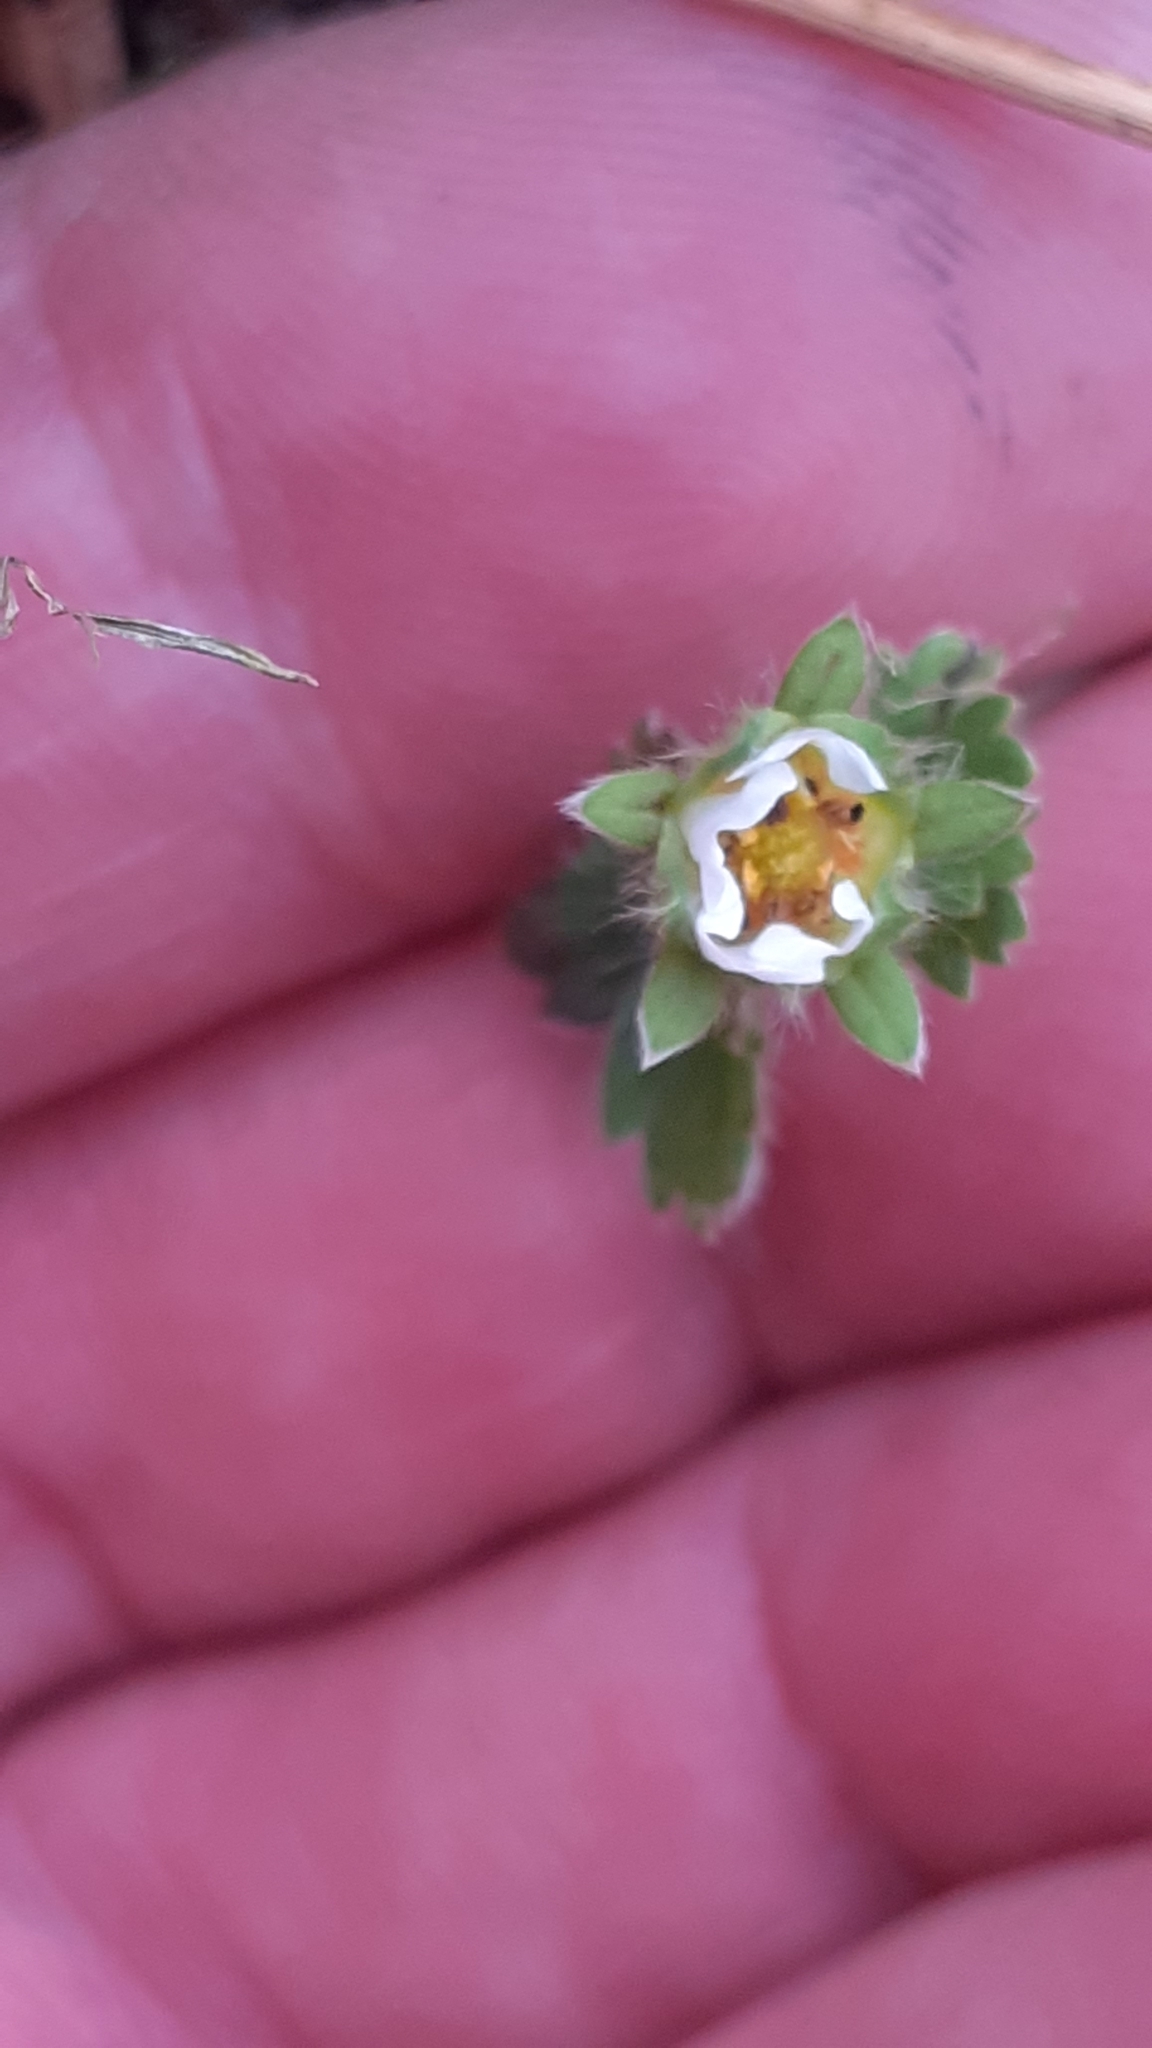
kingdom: Plantae
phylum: Tracheophyta
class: Magnoliopsida
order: Rosales
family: Rosaceae
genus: Potentilla
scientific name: Potentilla sterilis
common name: Barren strawberry
